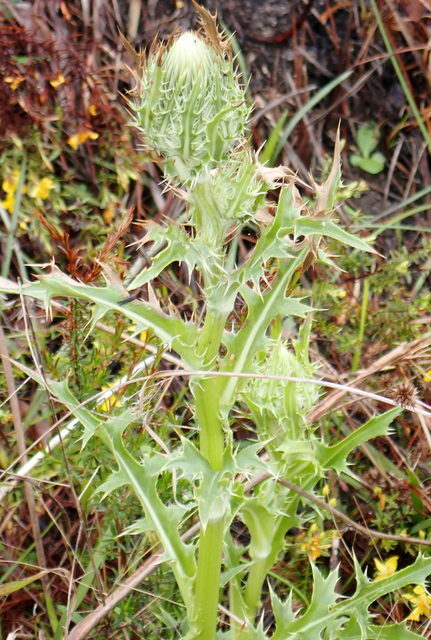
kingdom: Plantae
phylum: Tracheophyta
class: Magnoliopsida
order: Asterales
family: Asteraceae
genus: Cirsium
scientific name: Cirsium horridulum
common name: Bristly thistle
